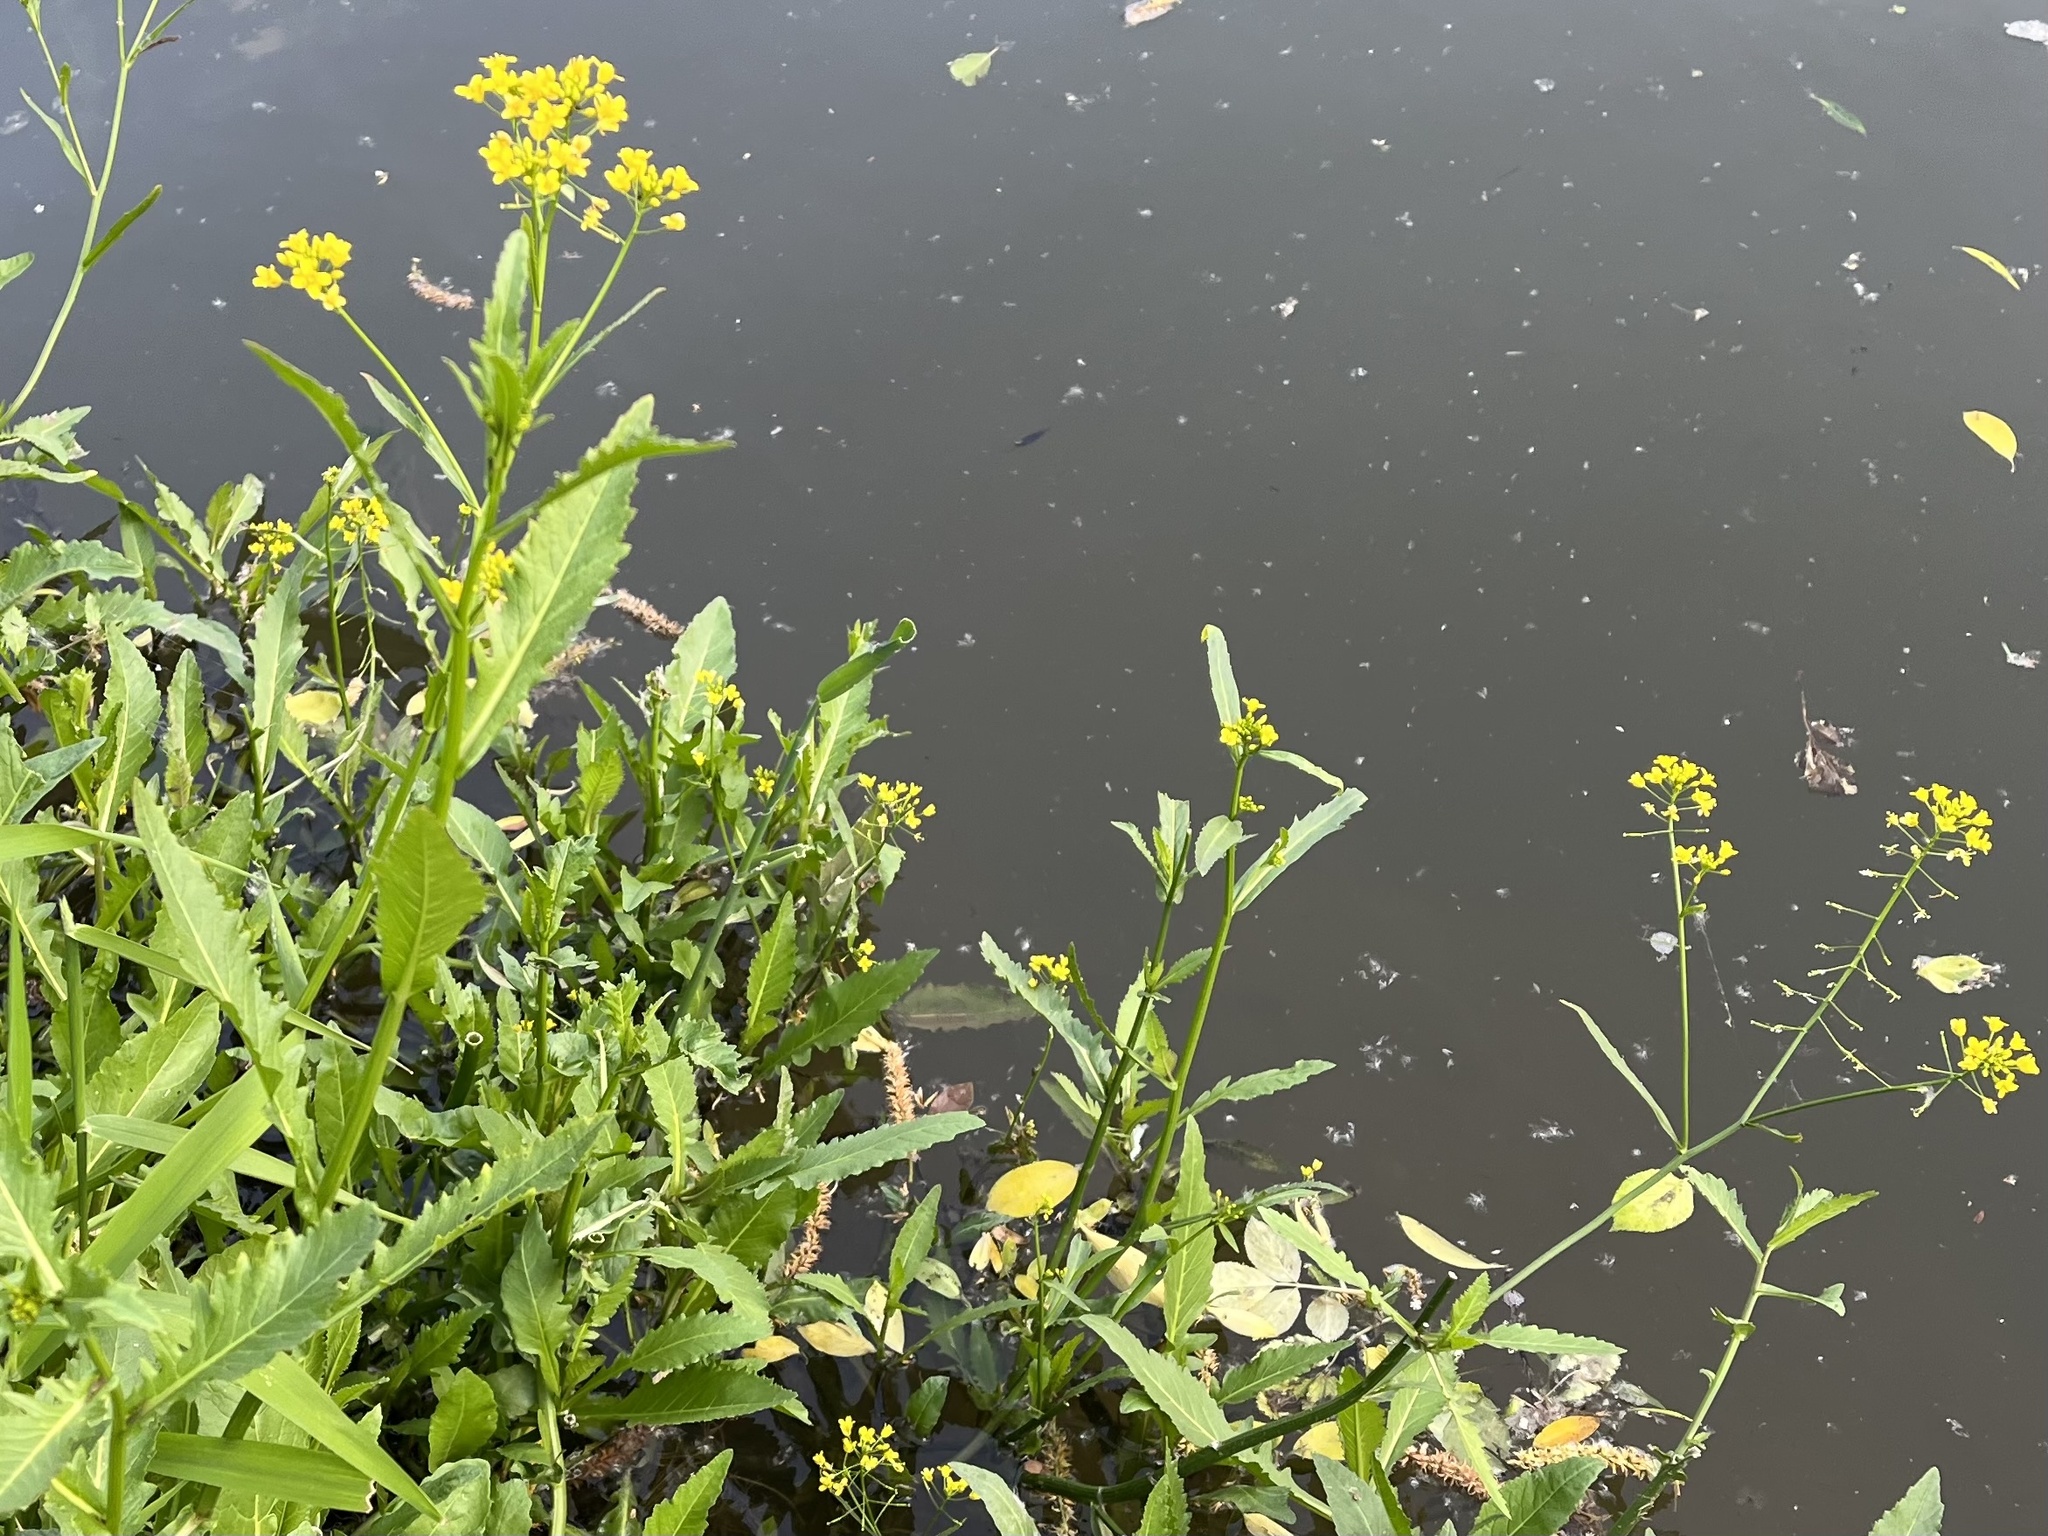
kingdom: Plantae
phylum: Tracheophyta
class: Magnoliopsida
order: Brassicales
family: Brassicaceae
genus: Rorippa
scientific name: Rorippa amphibia
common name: Great yellow-cress
